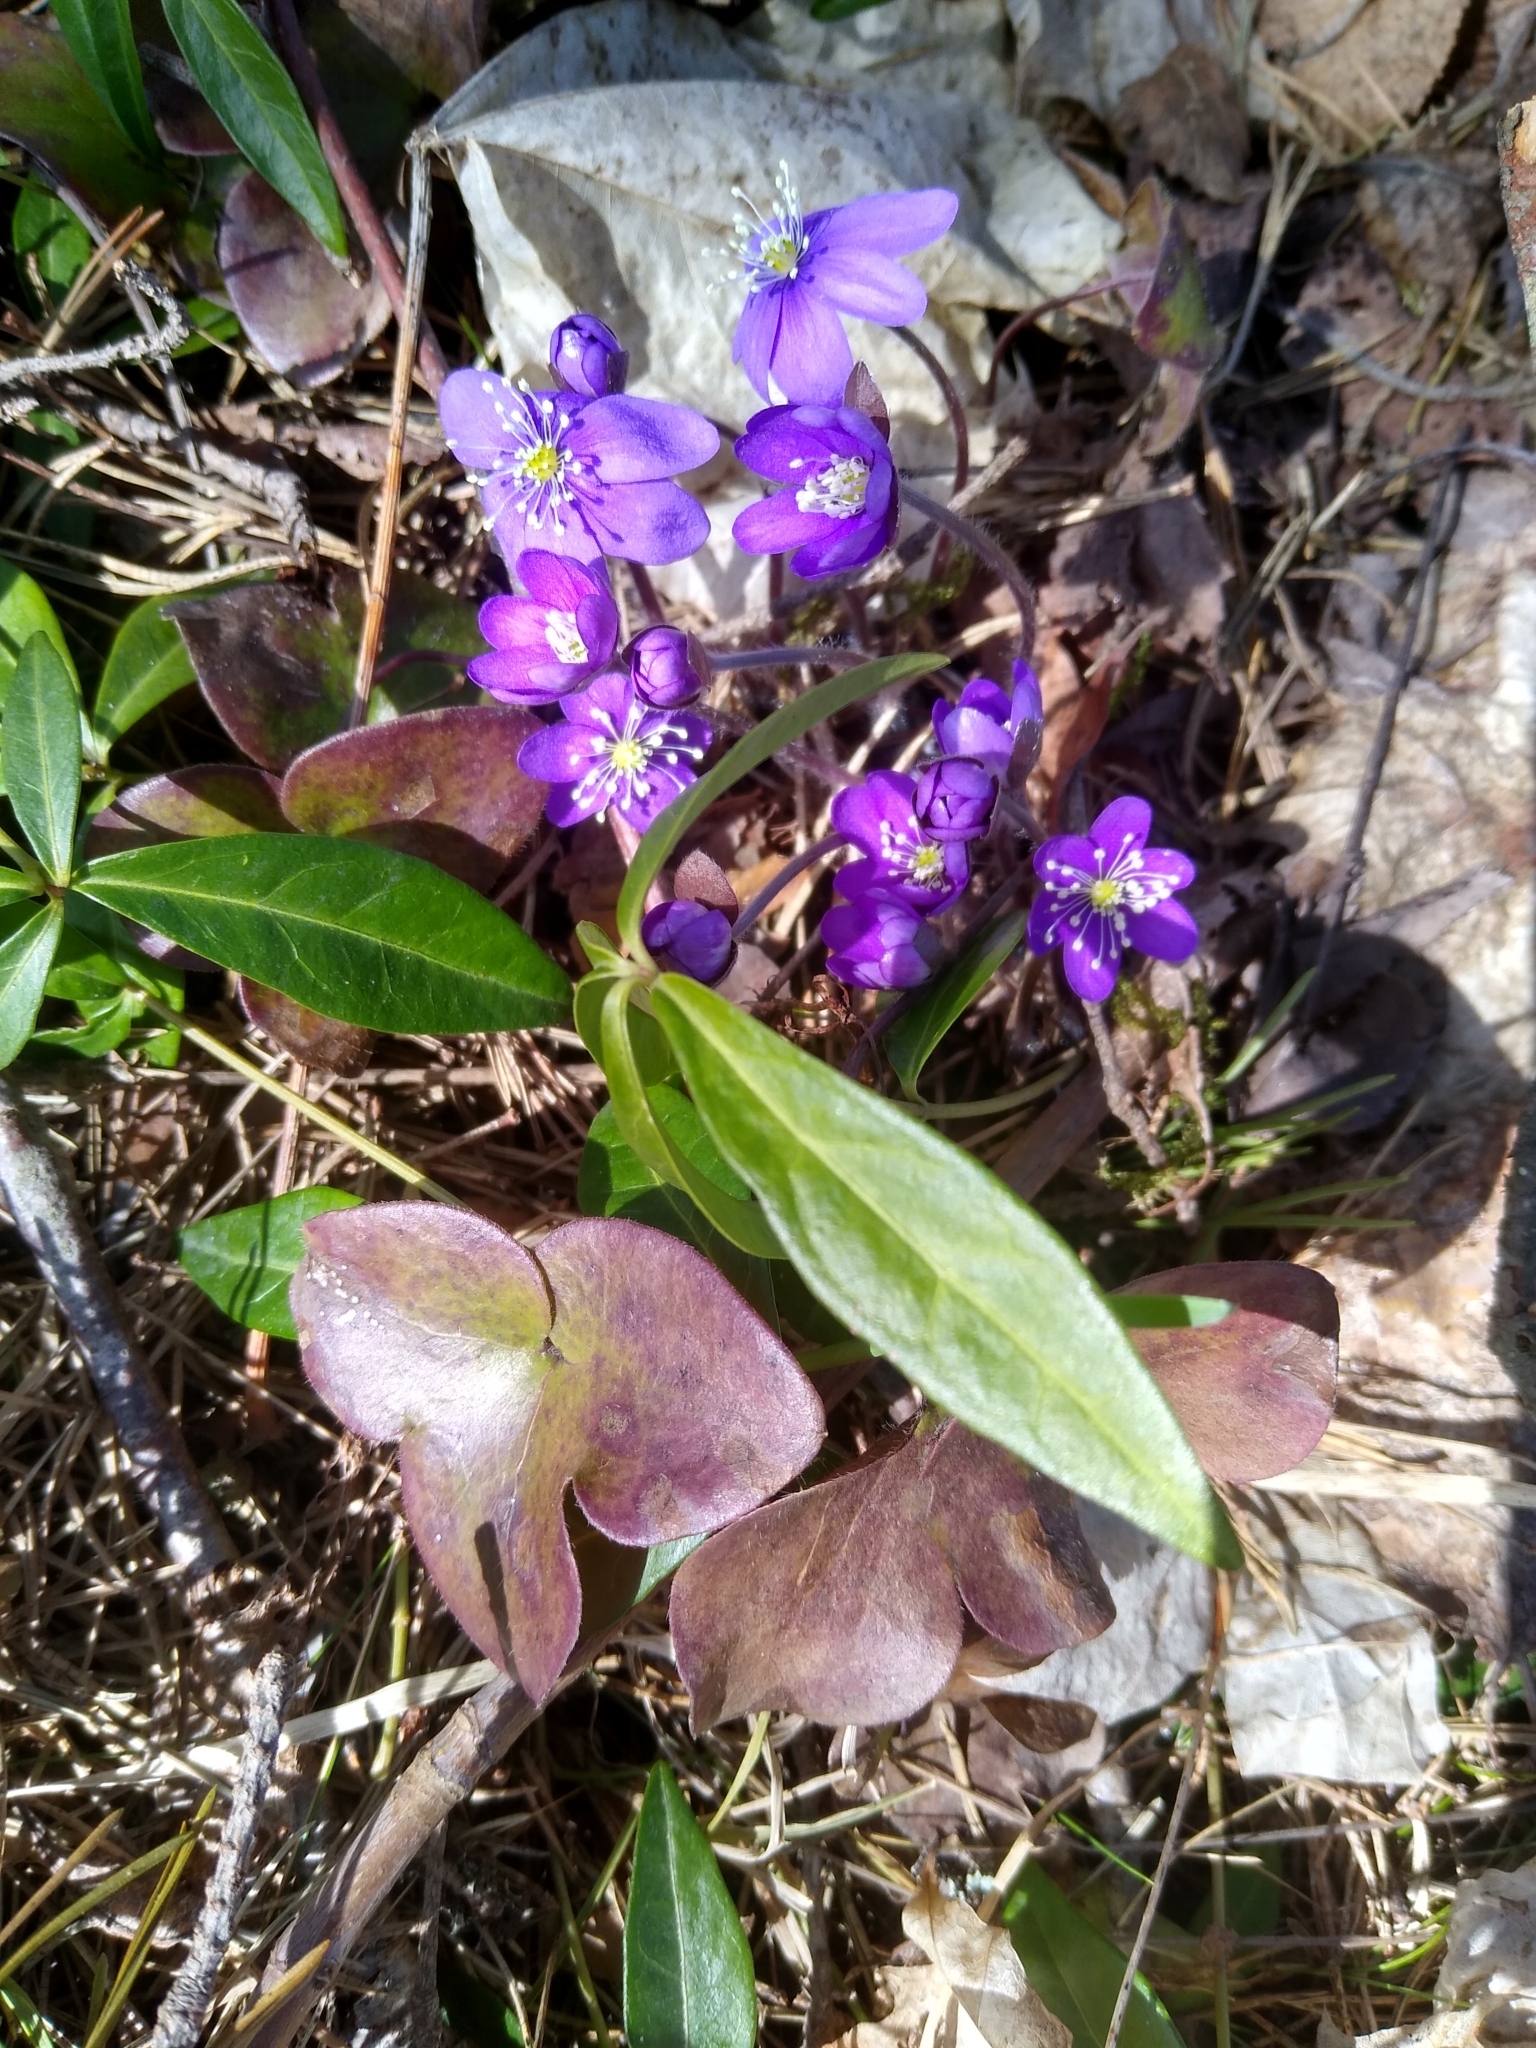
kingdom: Plantae
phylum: Tracheophyta
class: Magnoliopsida
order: Ranunculales
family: Ranunculaceae
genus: Hepatica
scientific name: Hepatica nobilis
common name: Liverleaf
